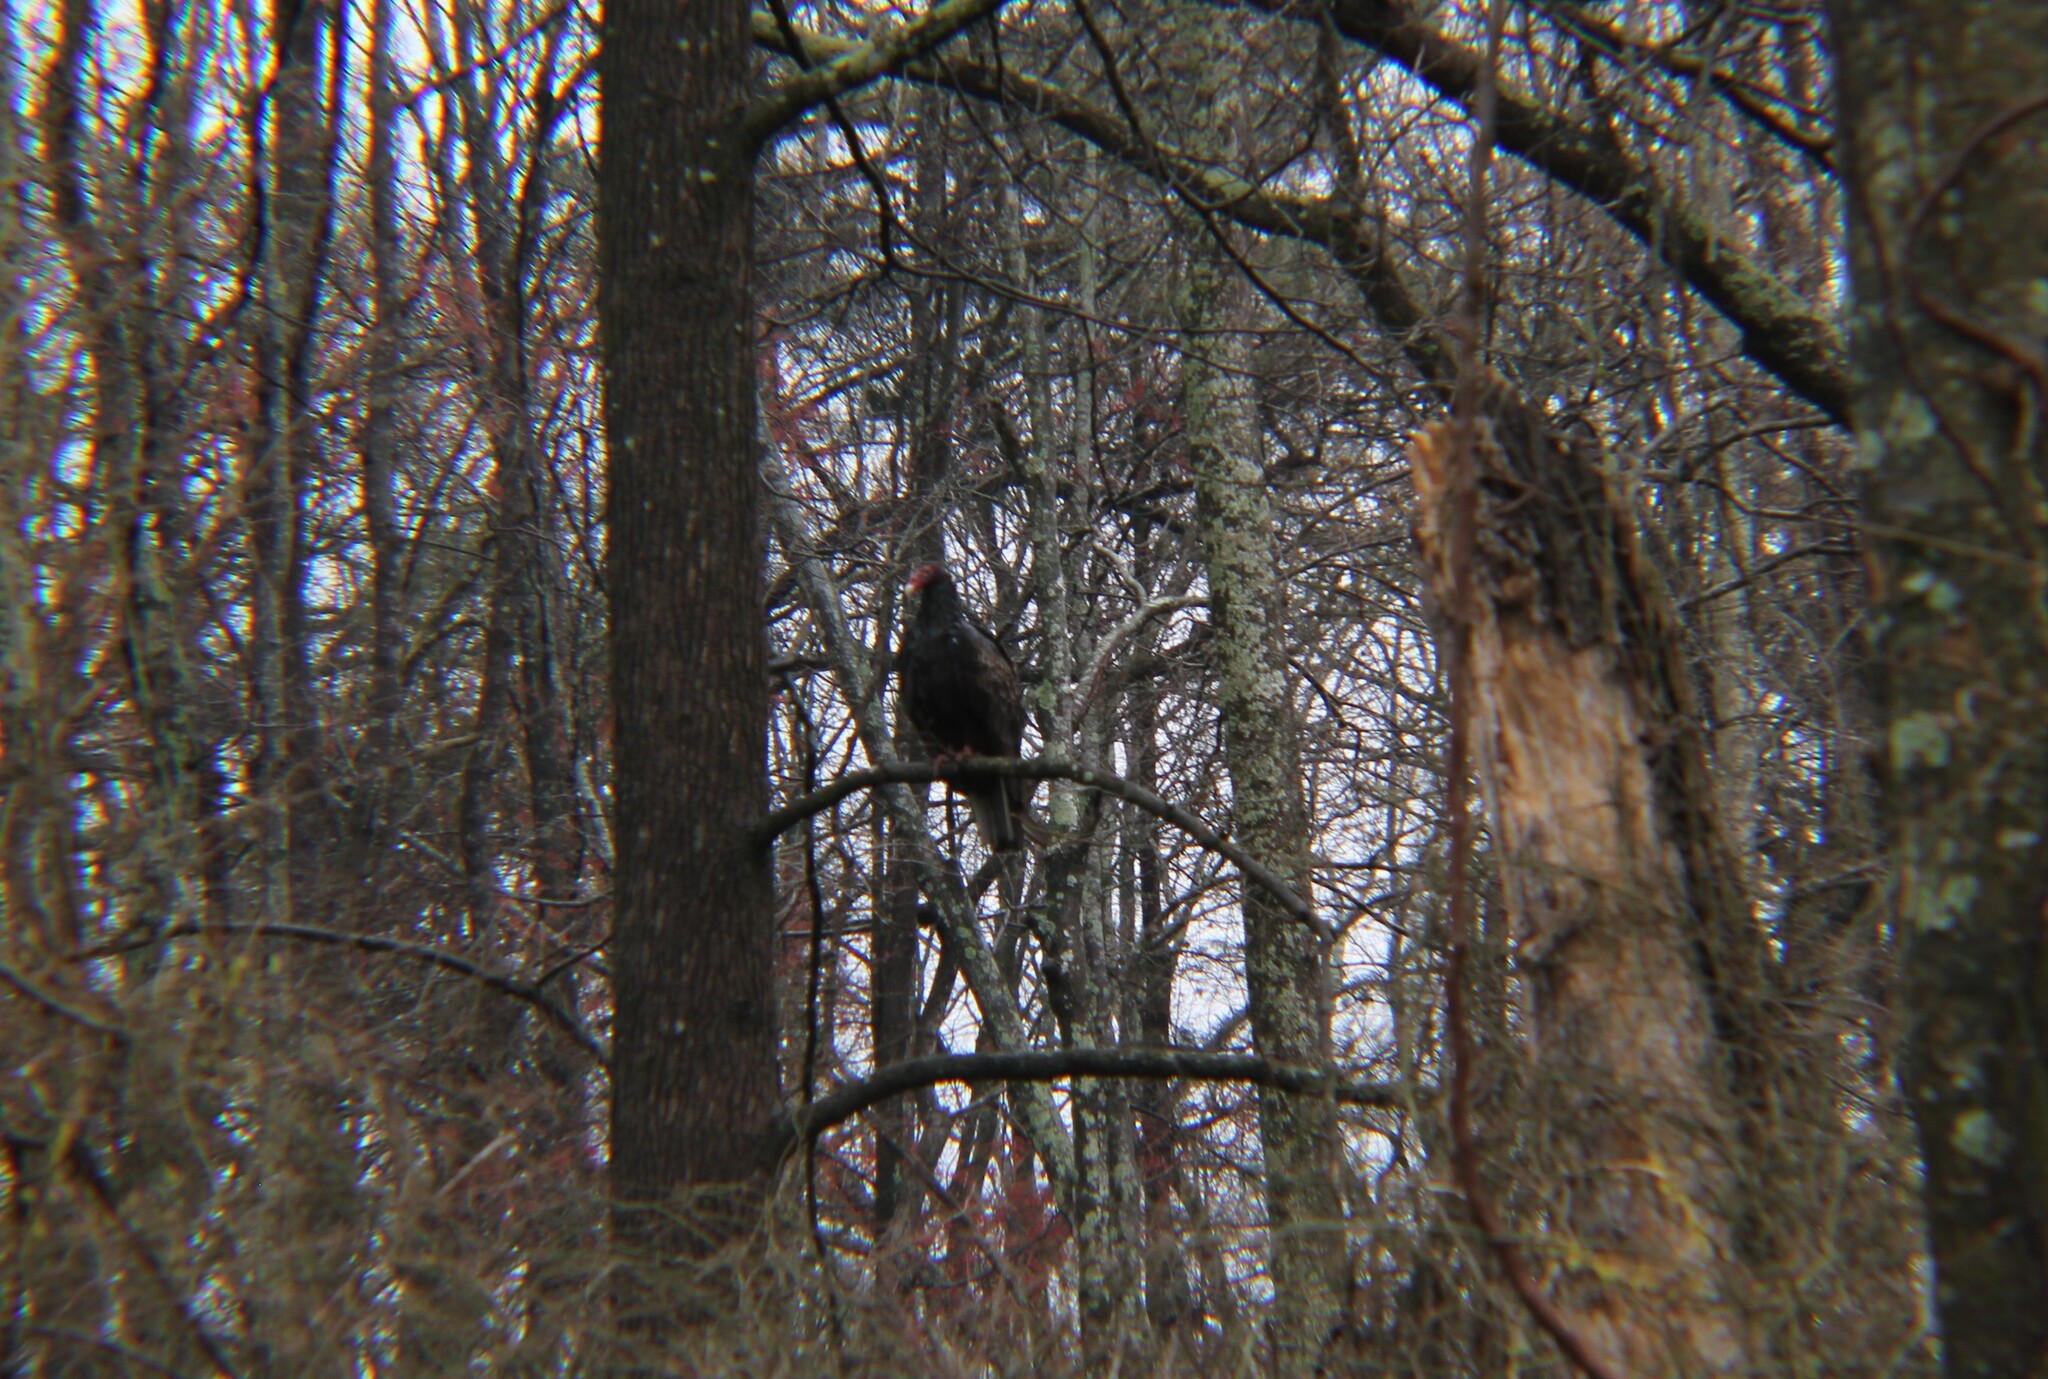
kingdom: Animalia
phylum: Chordata
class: Aves
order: Accipitriformes
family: Cathartidae
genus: Cathartes
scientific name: Cathartes aura
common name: Turkey vulture
